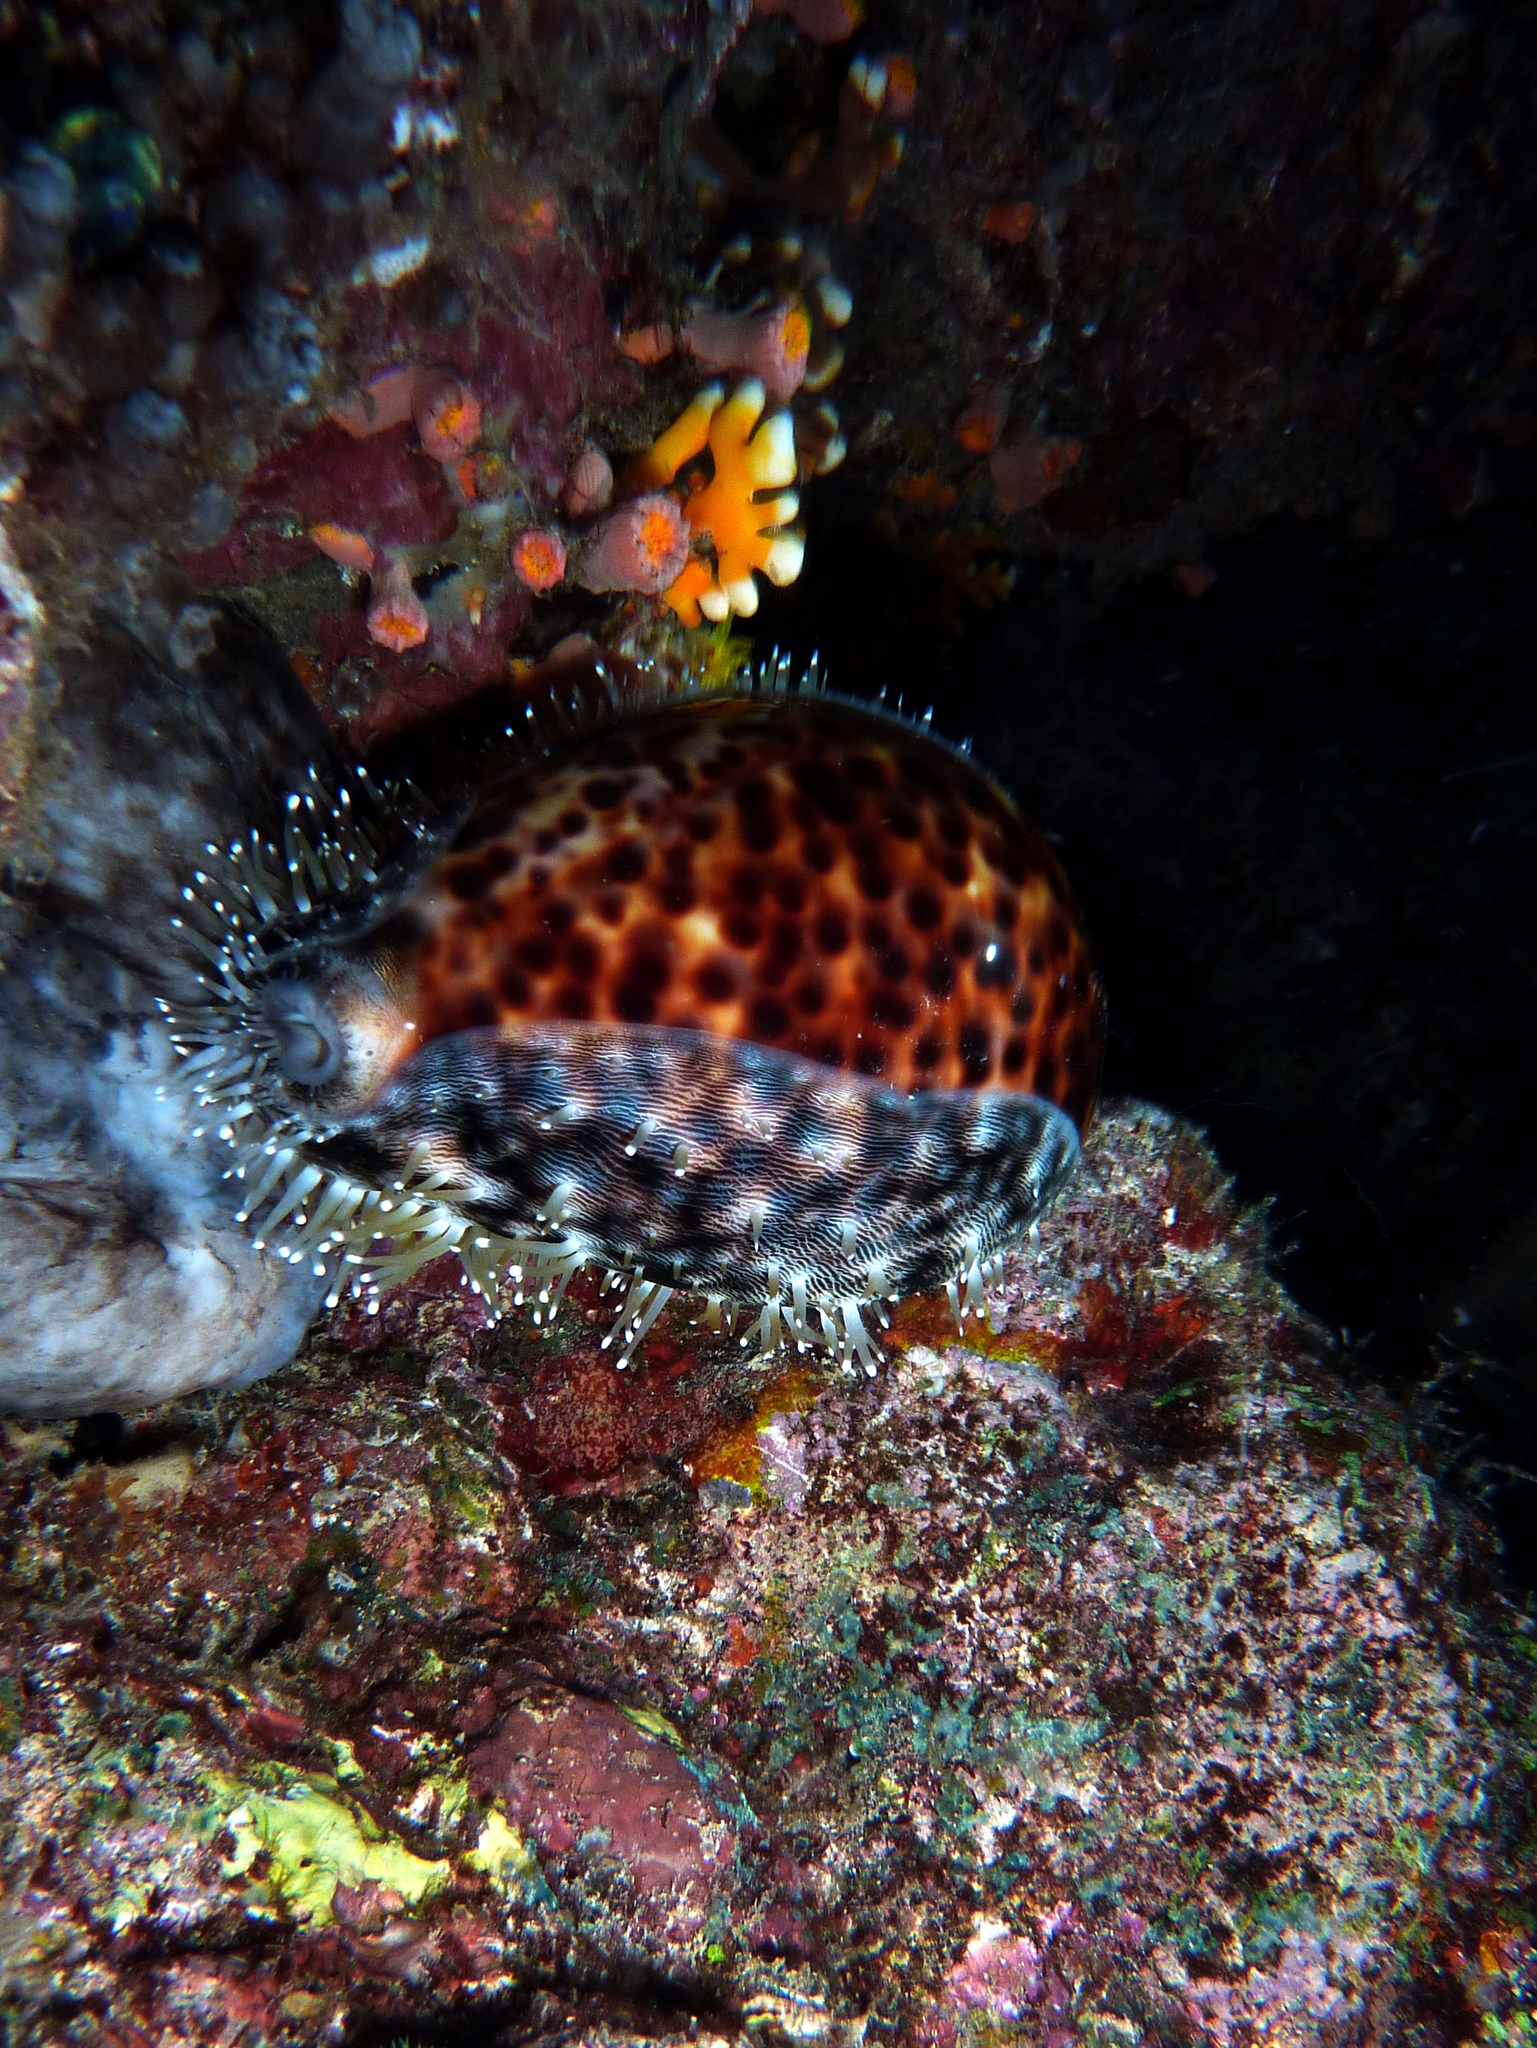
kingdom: Animalia
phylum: Mollusca
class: Gastropoda
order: Littorinimorpha
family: Cypraeidae
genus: Cypraea
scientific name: Cypraea tigris
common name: Tiger cowrie
